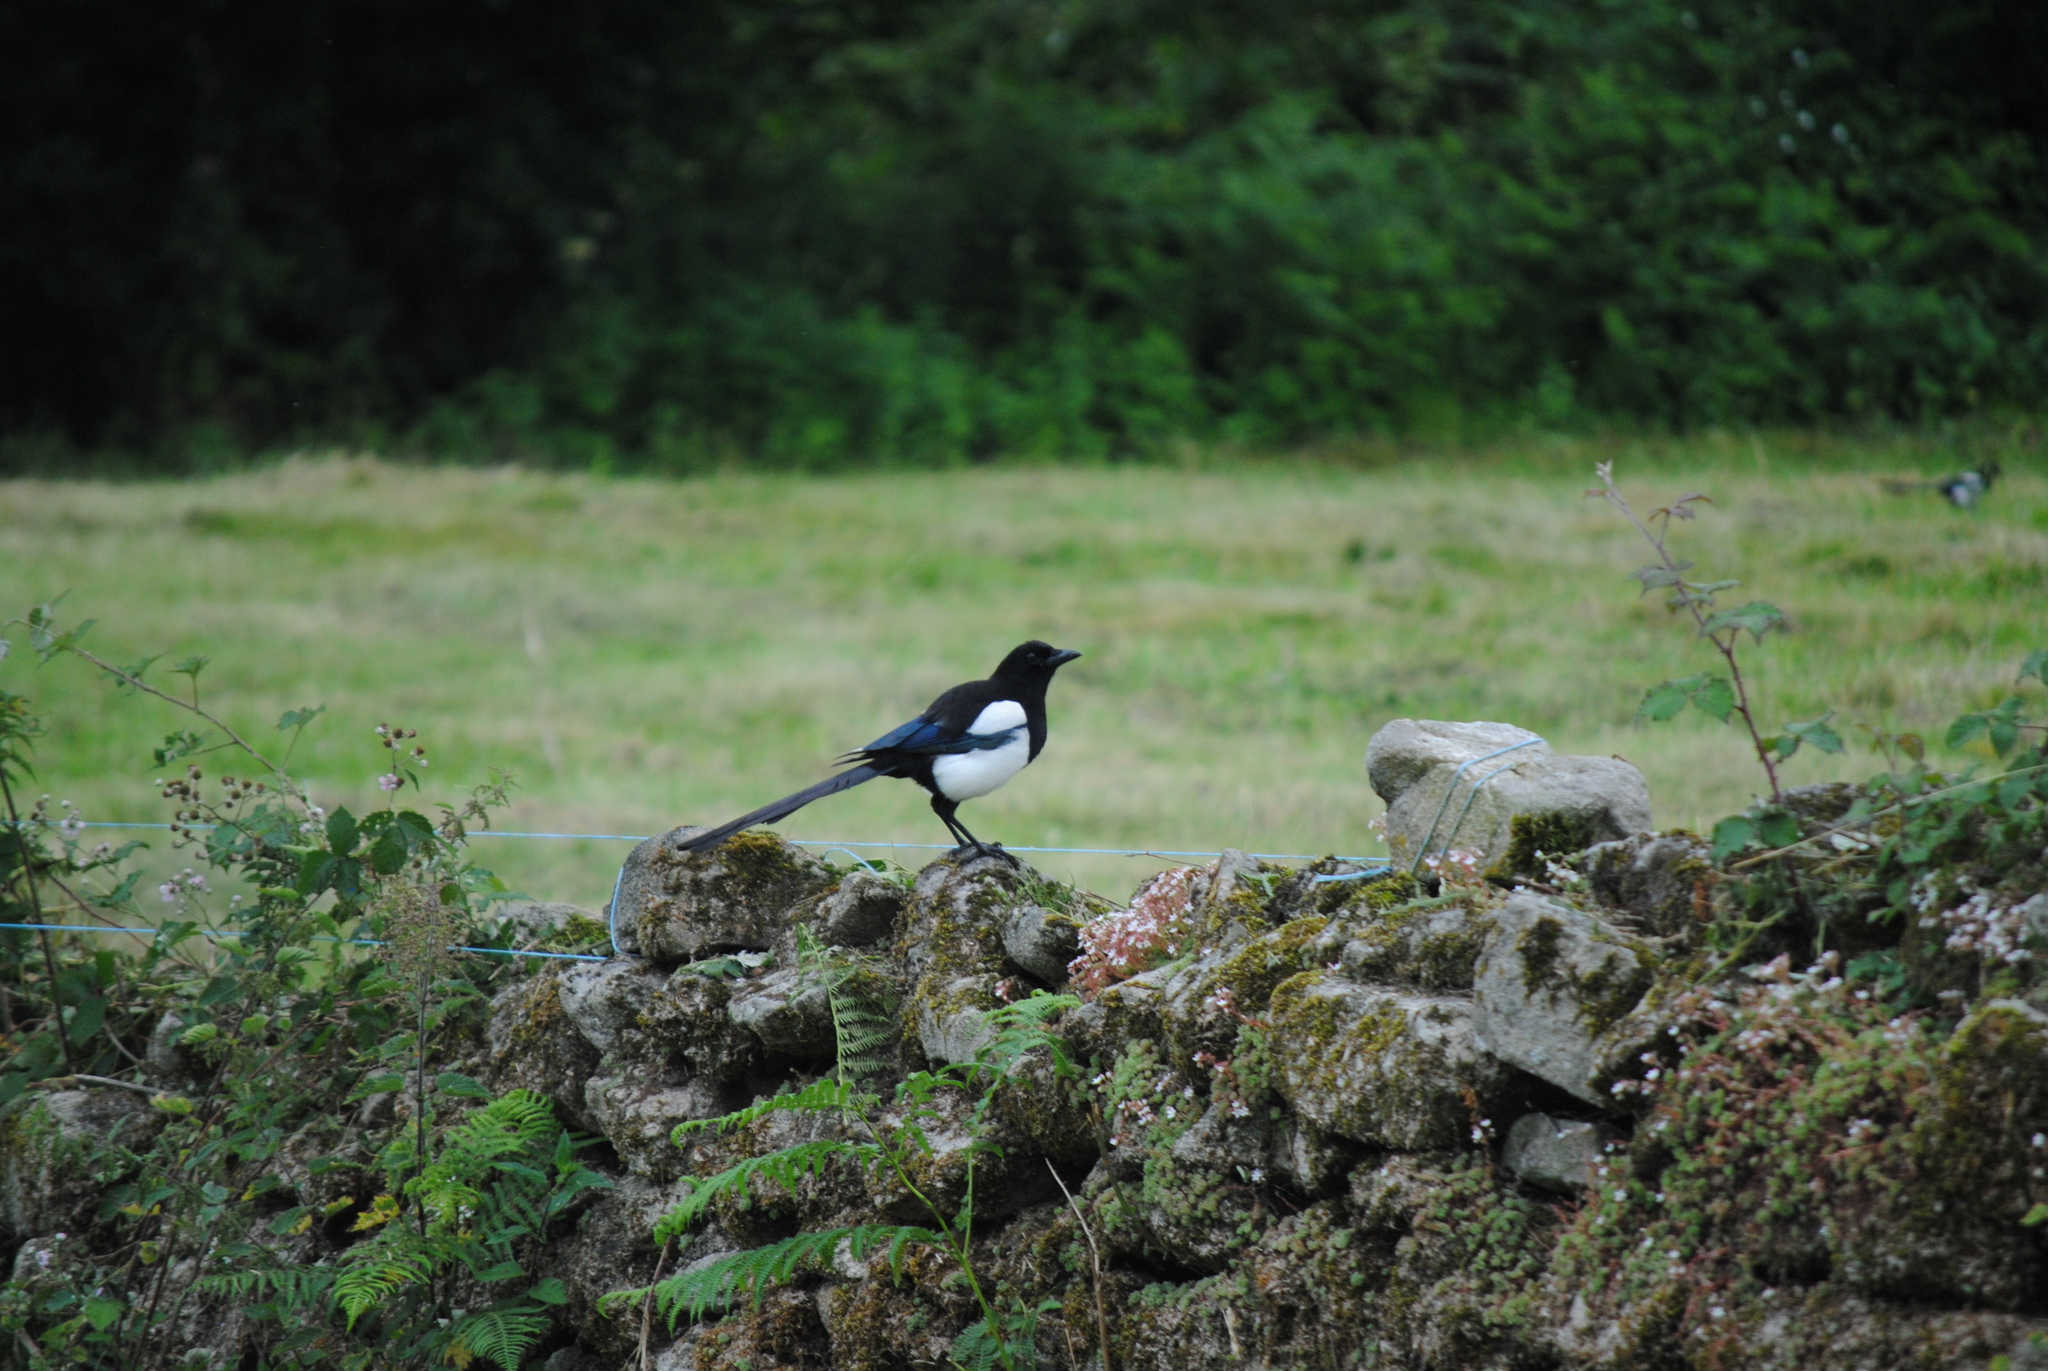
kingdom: Animalia
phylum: Chordata
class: Aves
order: Passeriformes
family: Corvidae
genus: Pica
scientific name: Pica pica
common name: Eurasian magpie
